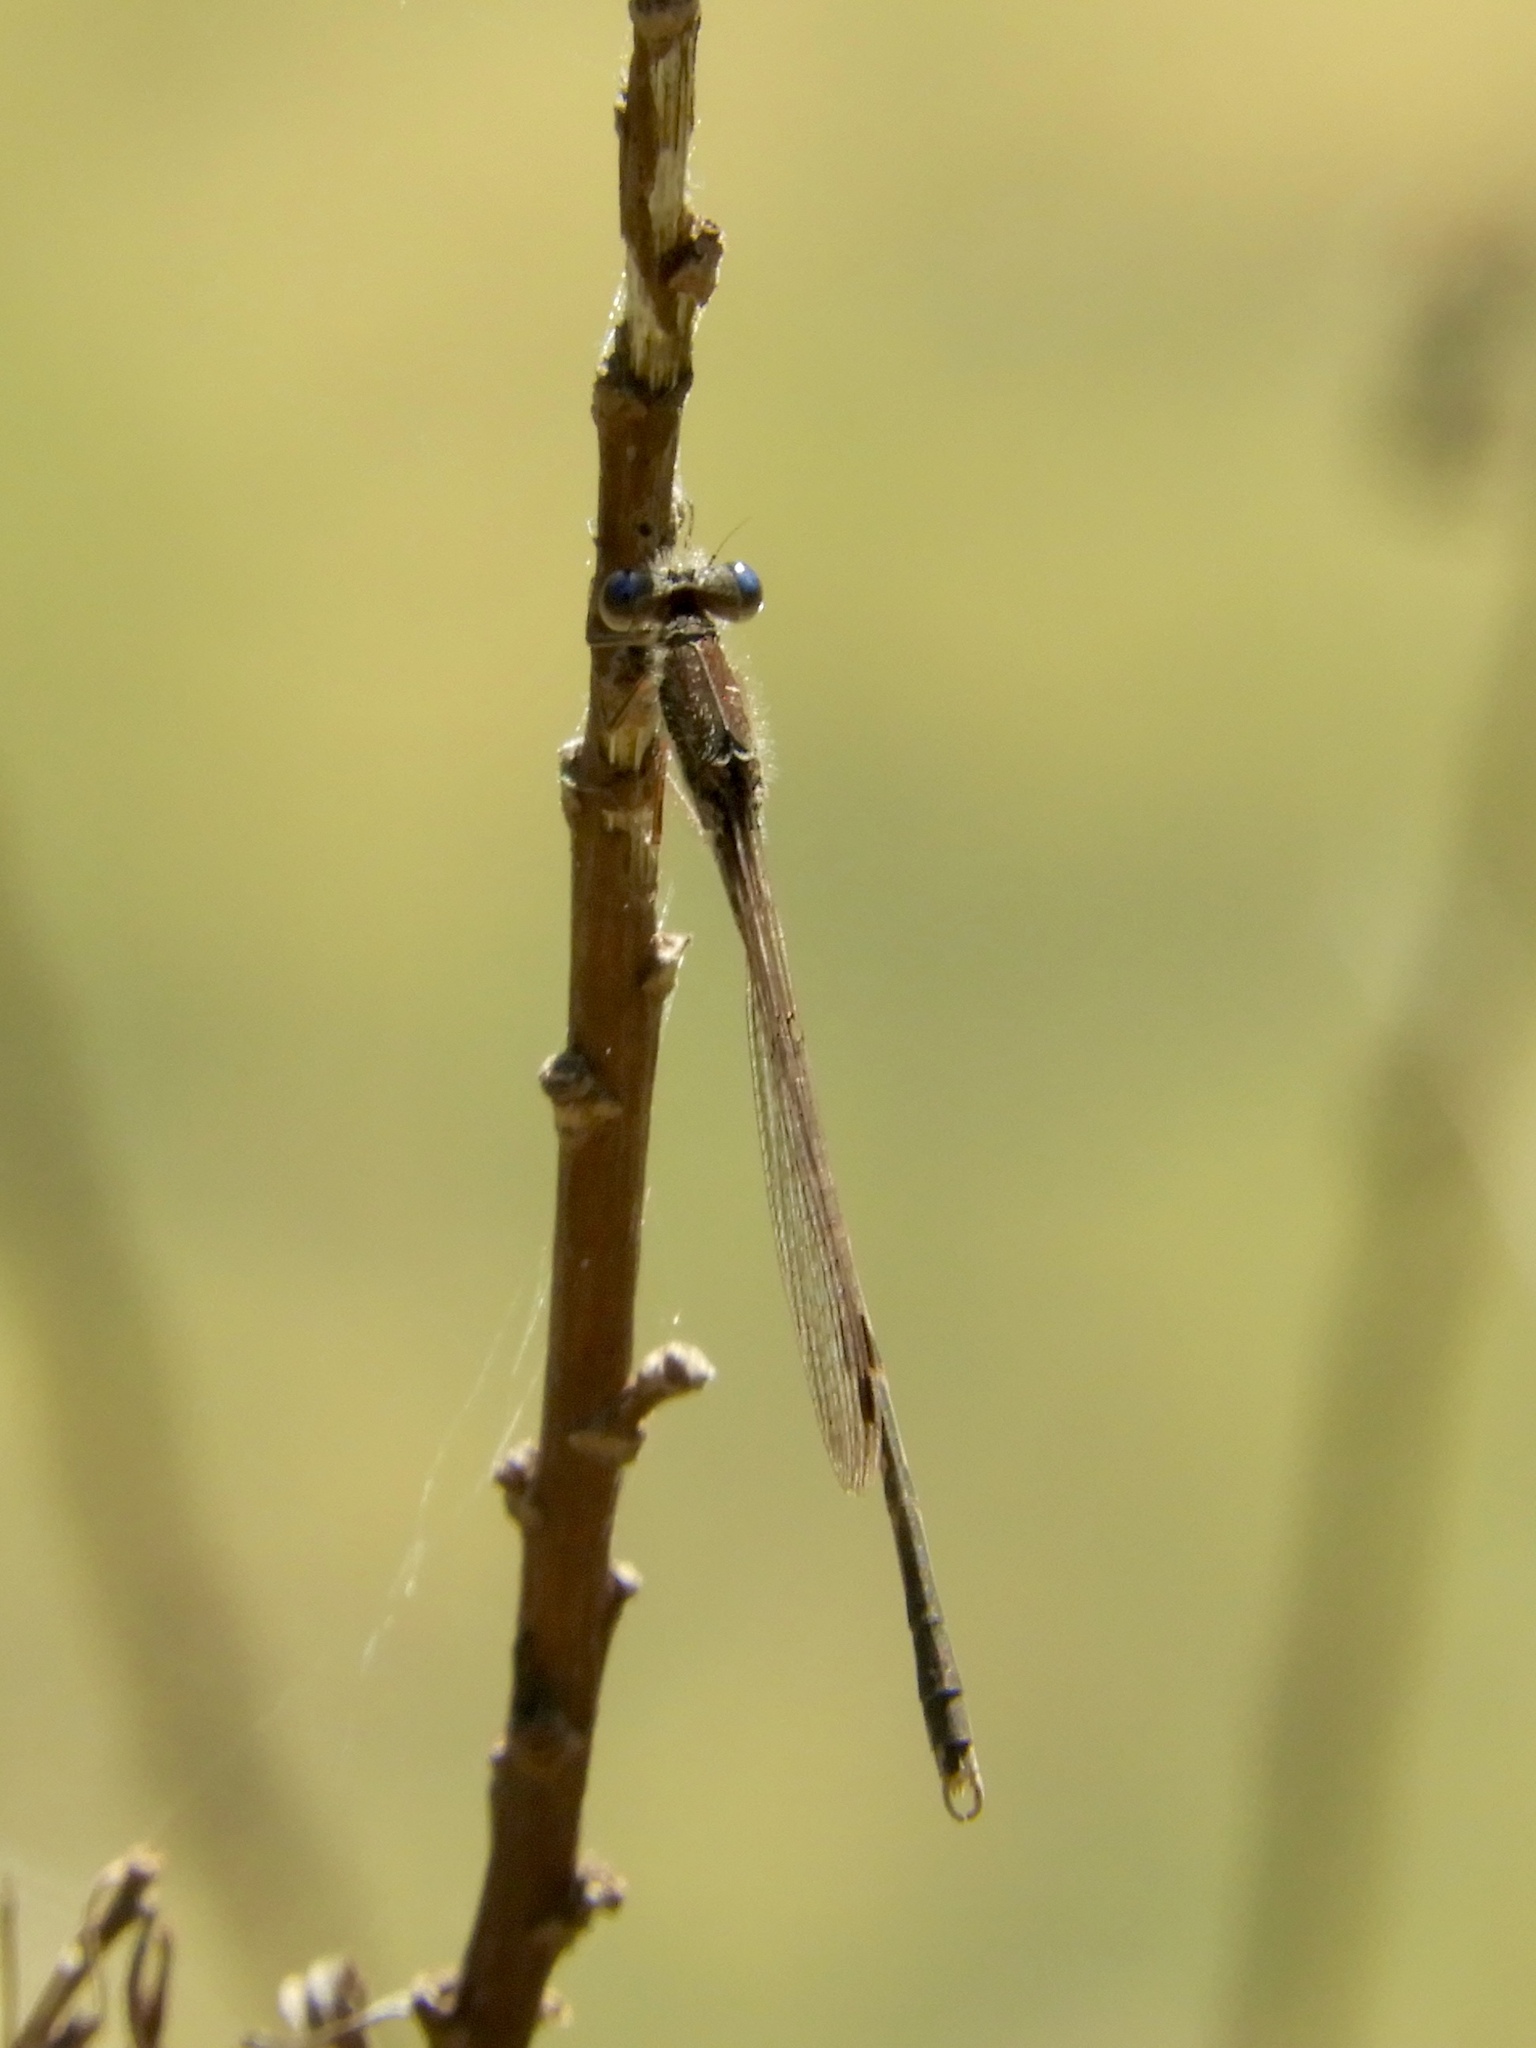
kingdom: Animalia
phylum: Arthropoda
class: Insecta
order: Odonata
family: Lestidae
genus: Sympecma
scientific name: Sympecma fusca
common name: Common winter damsel
